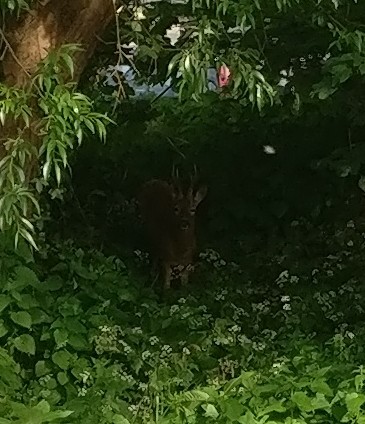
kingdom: Animalia
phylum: Chordata
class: Mammalia
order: Artiodactyla
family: Cervidae
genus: Capreolus
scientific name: Capreolus capreolus
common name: Western roe deer
